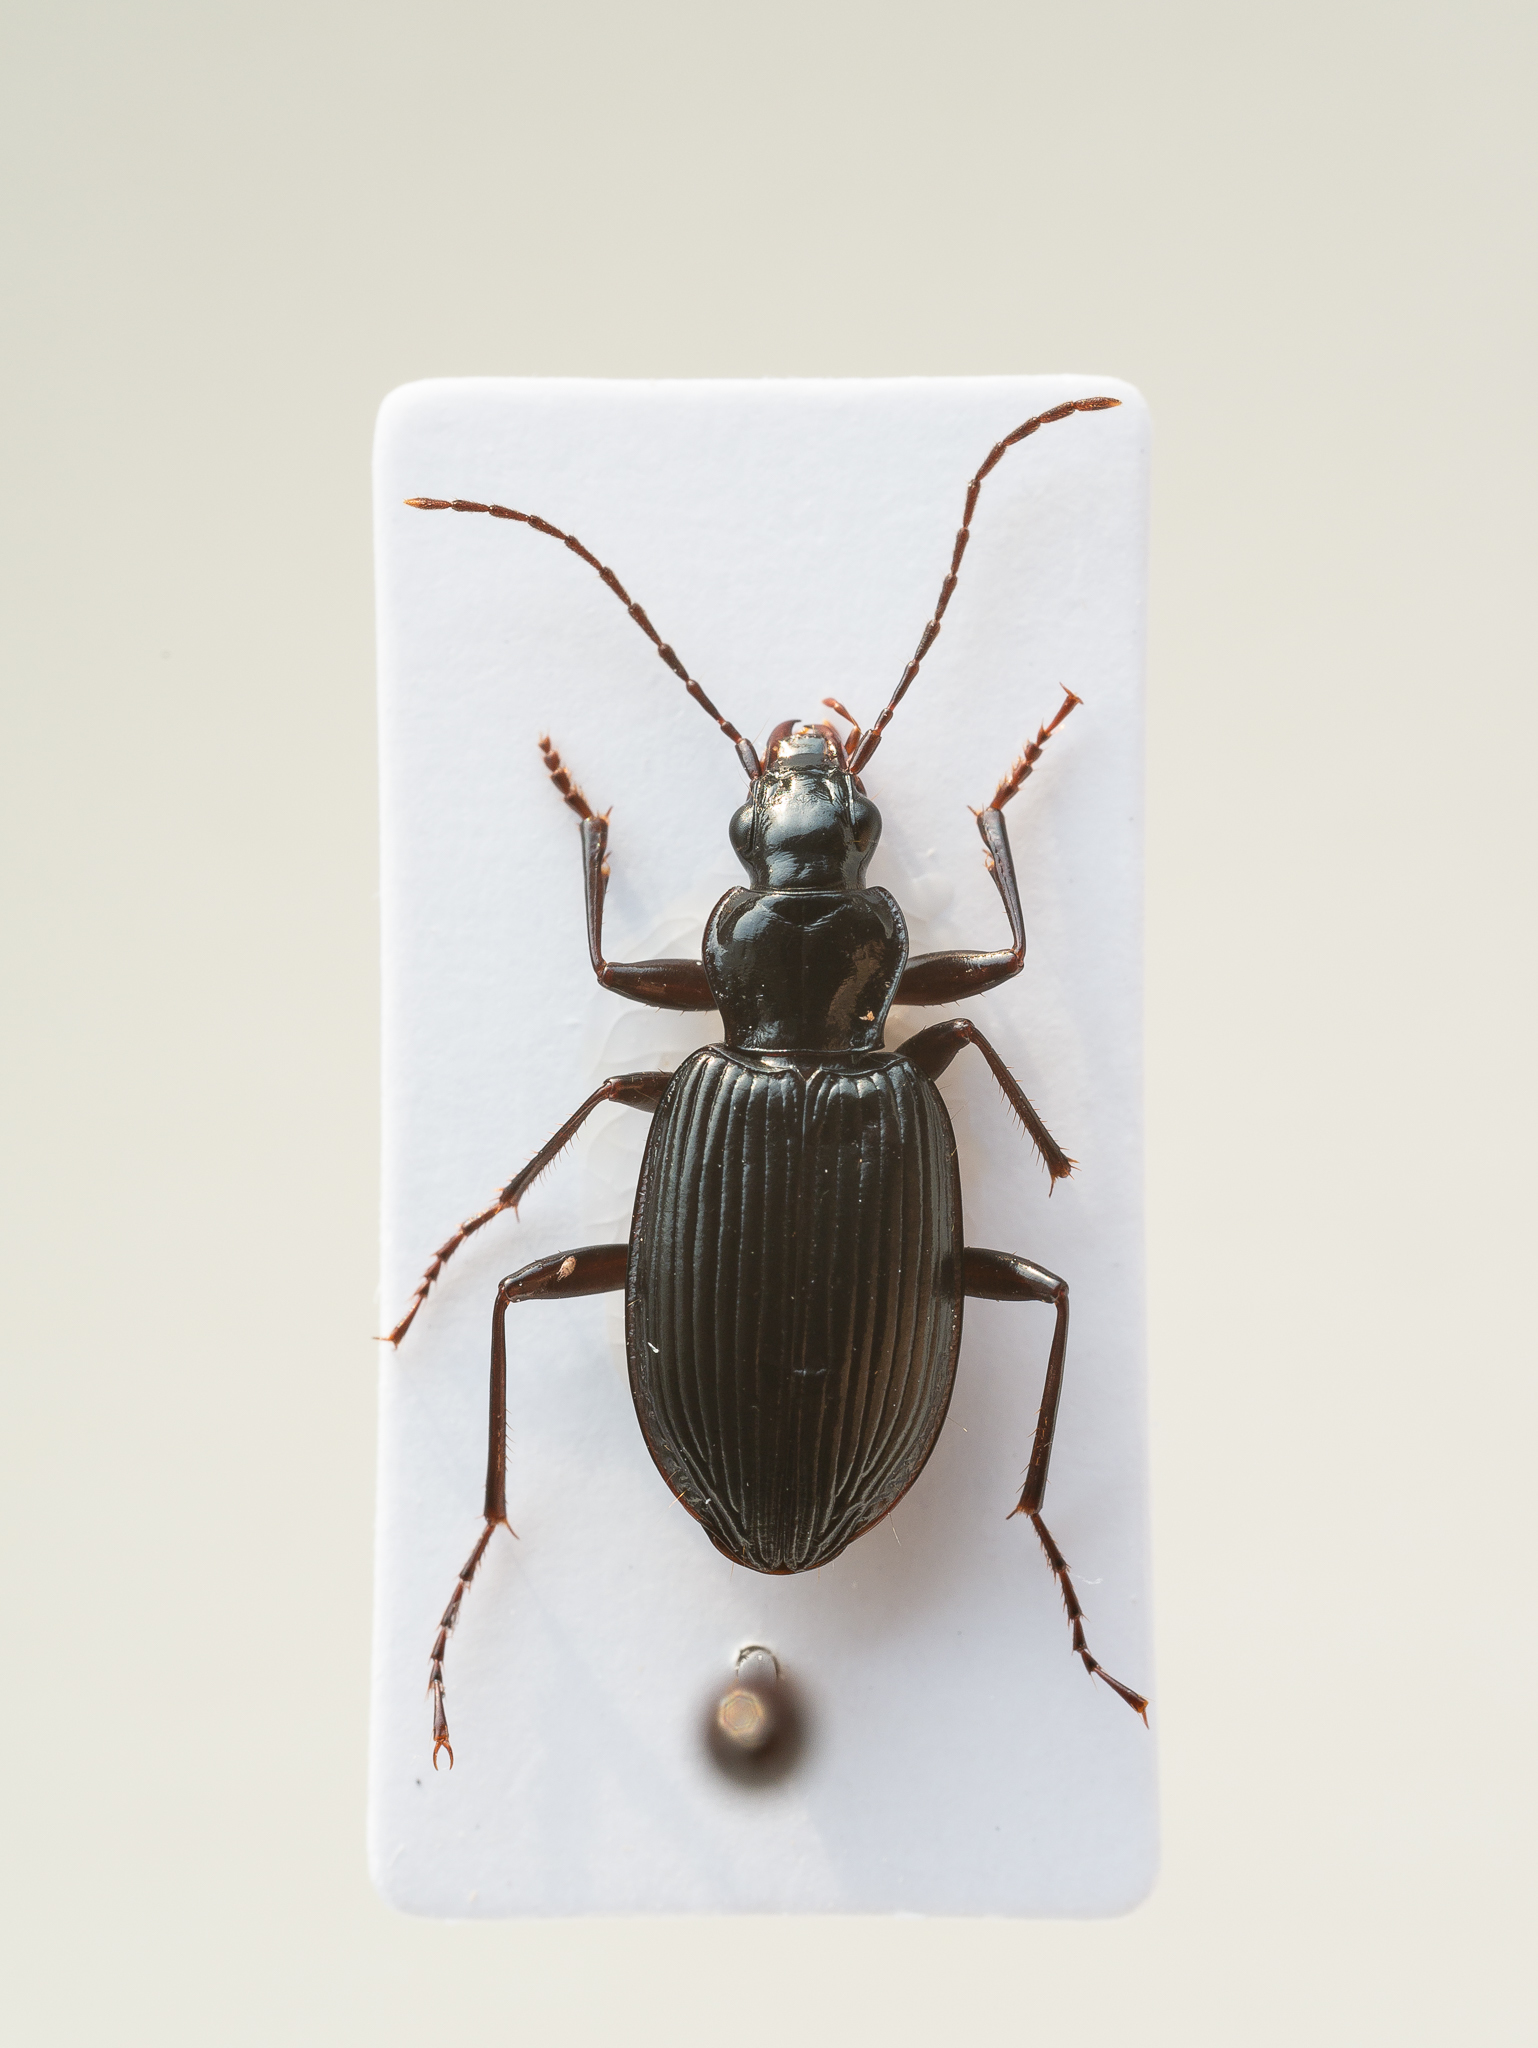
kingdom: Animalia
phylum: Arthropoda
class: Insecta
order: Coleoptera
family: Carabidae
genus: Platynus
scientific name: Platynus assimilis
